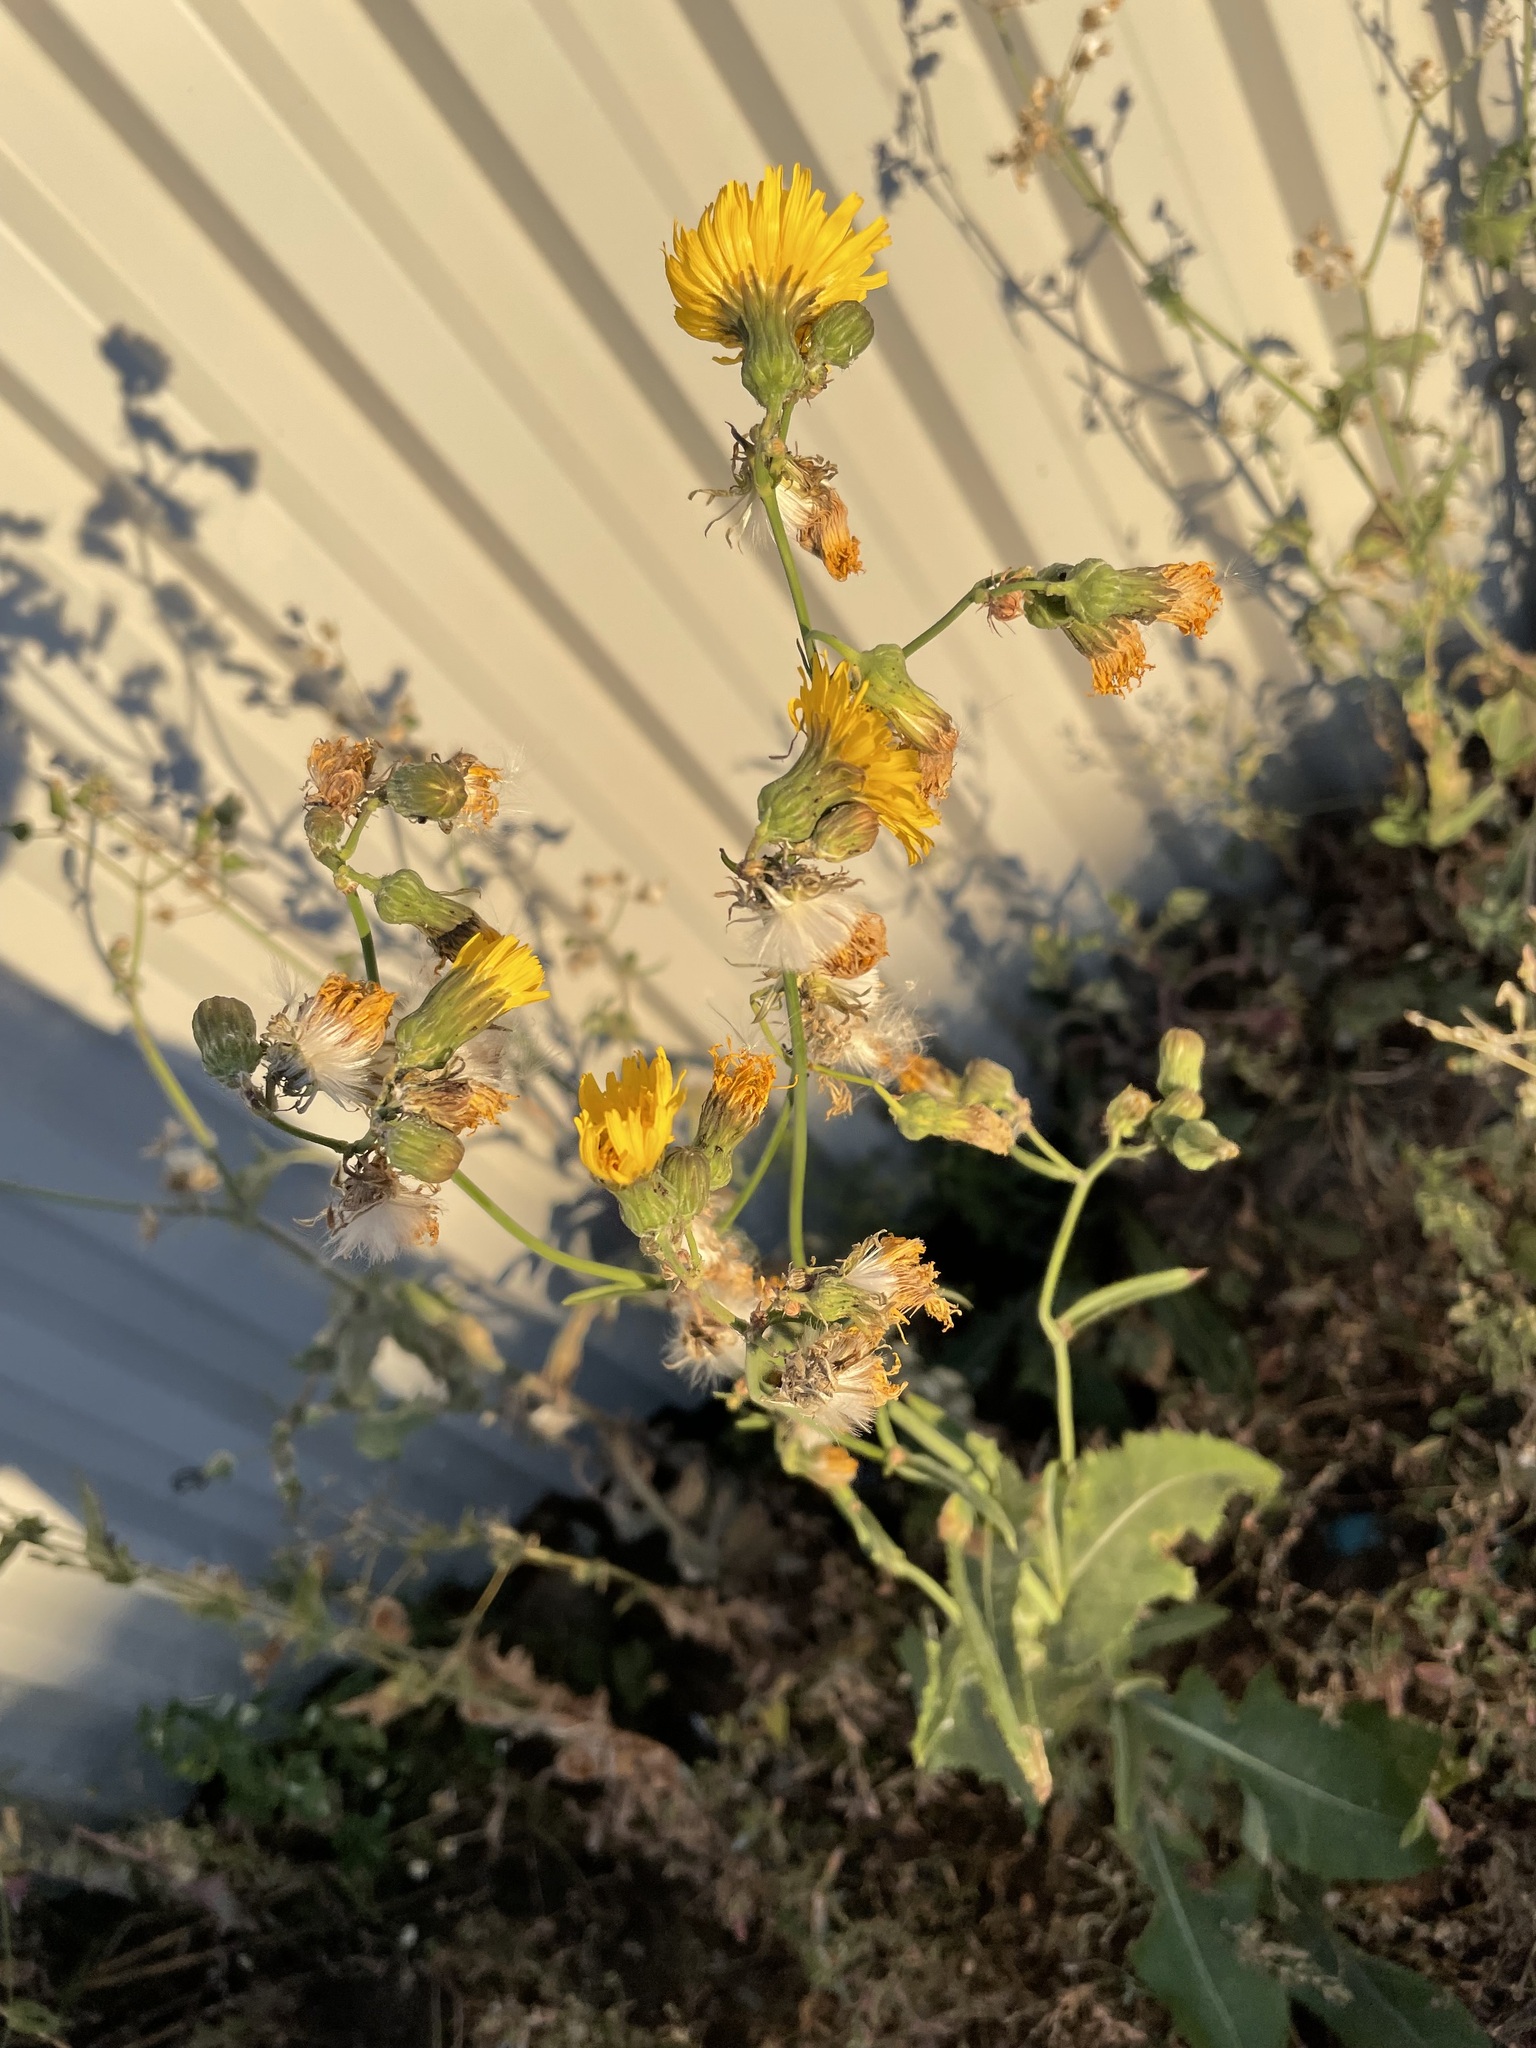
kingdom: Plantae
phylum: Tracheophyta
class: Magnoliopsida
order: Asterales
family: Asteraceae
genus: Sonchus
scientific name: Sonchus arvensis
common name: Perennial sow-thistle
